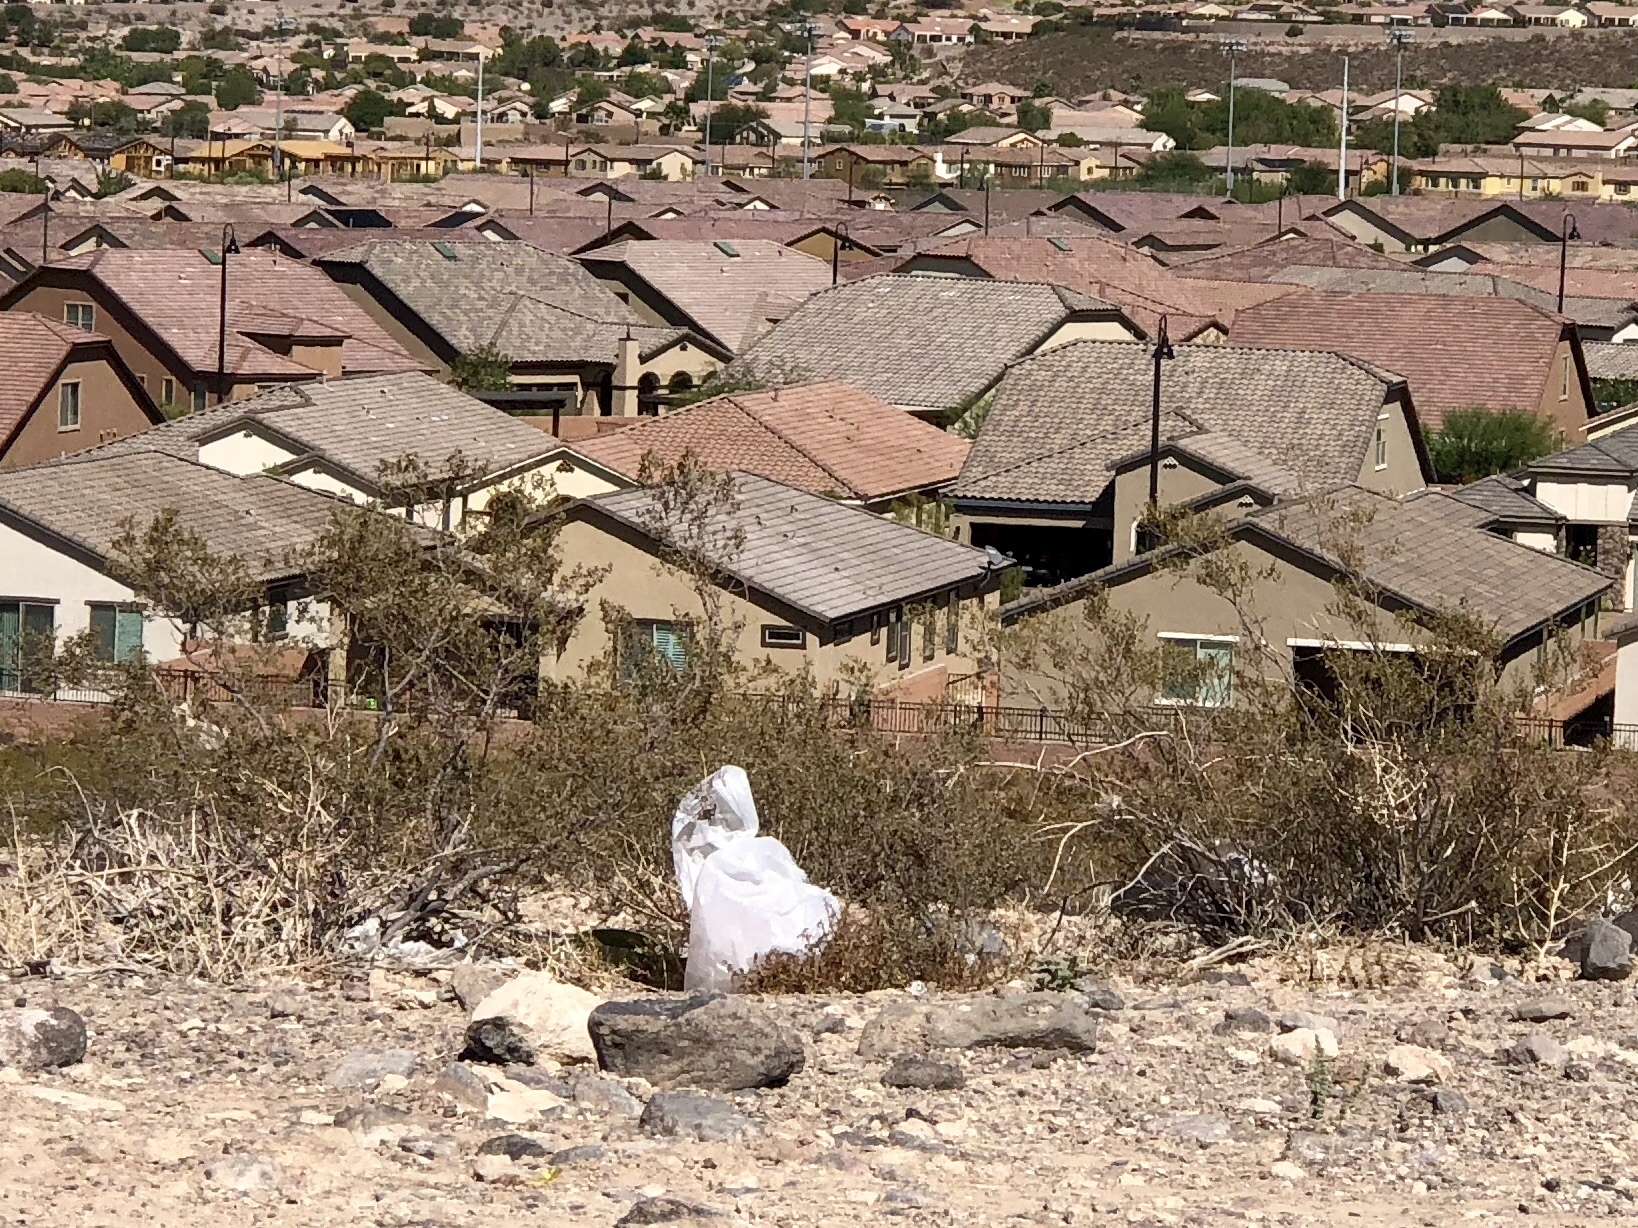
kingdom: Plantae
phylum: Tracheophyta
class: Magnoliopsida
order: Zygophyllales
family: Zygophyllaceae
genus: Larrea
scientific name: Larrea tridentata
